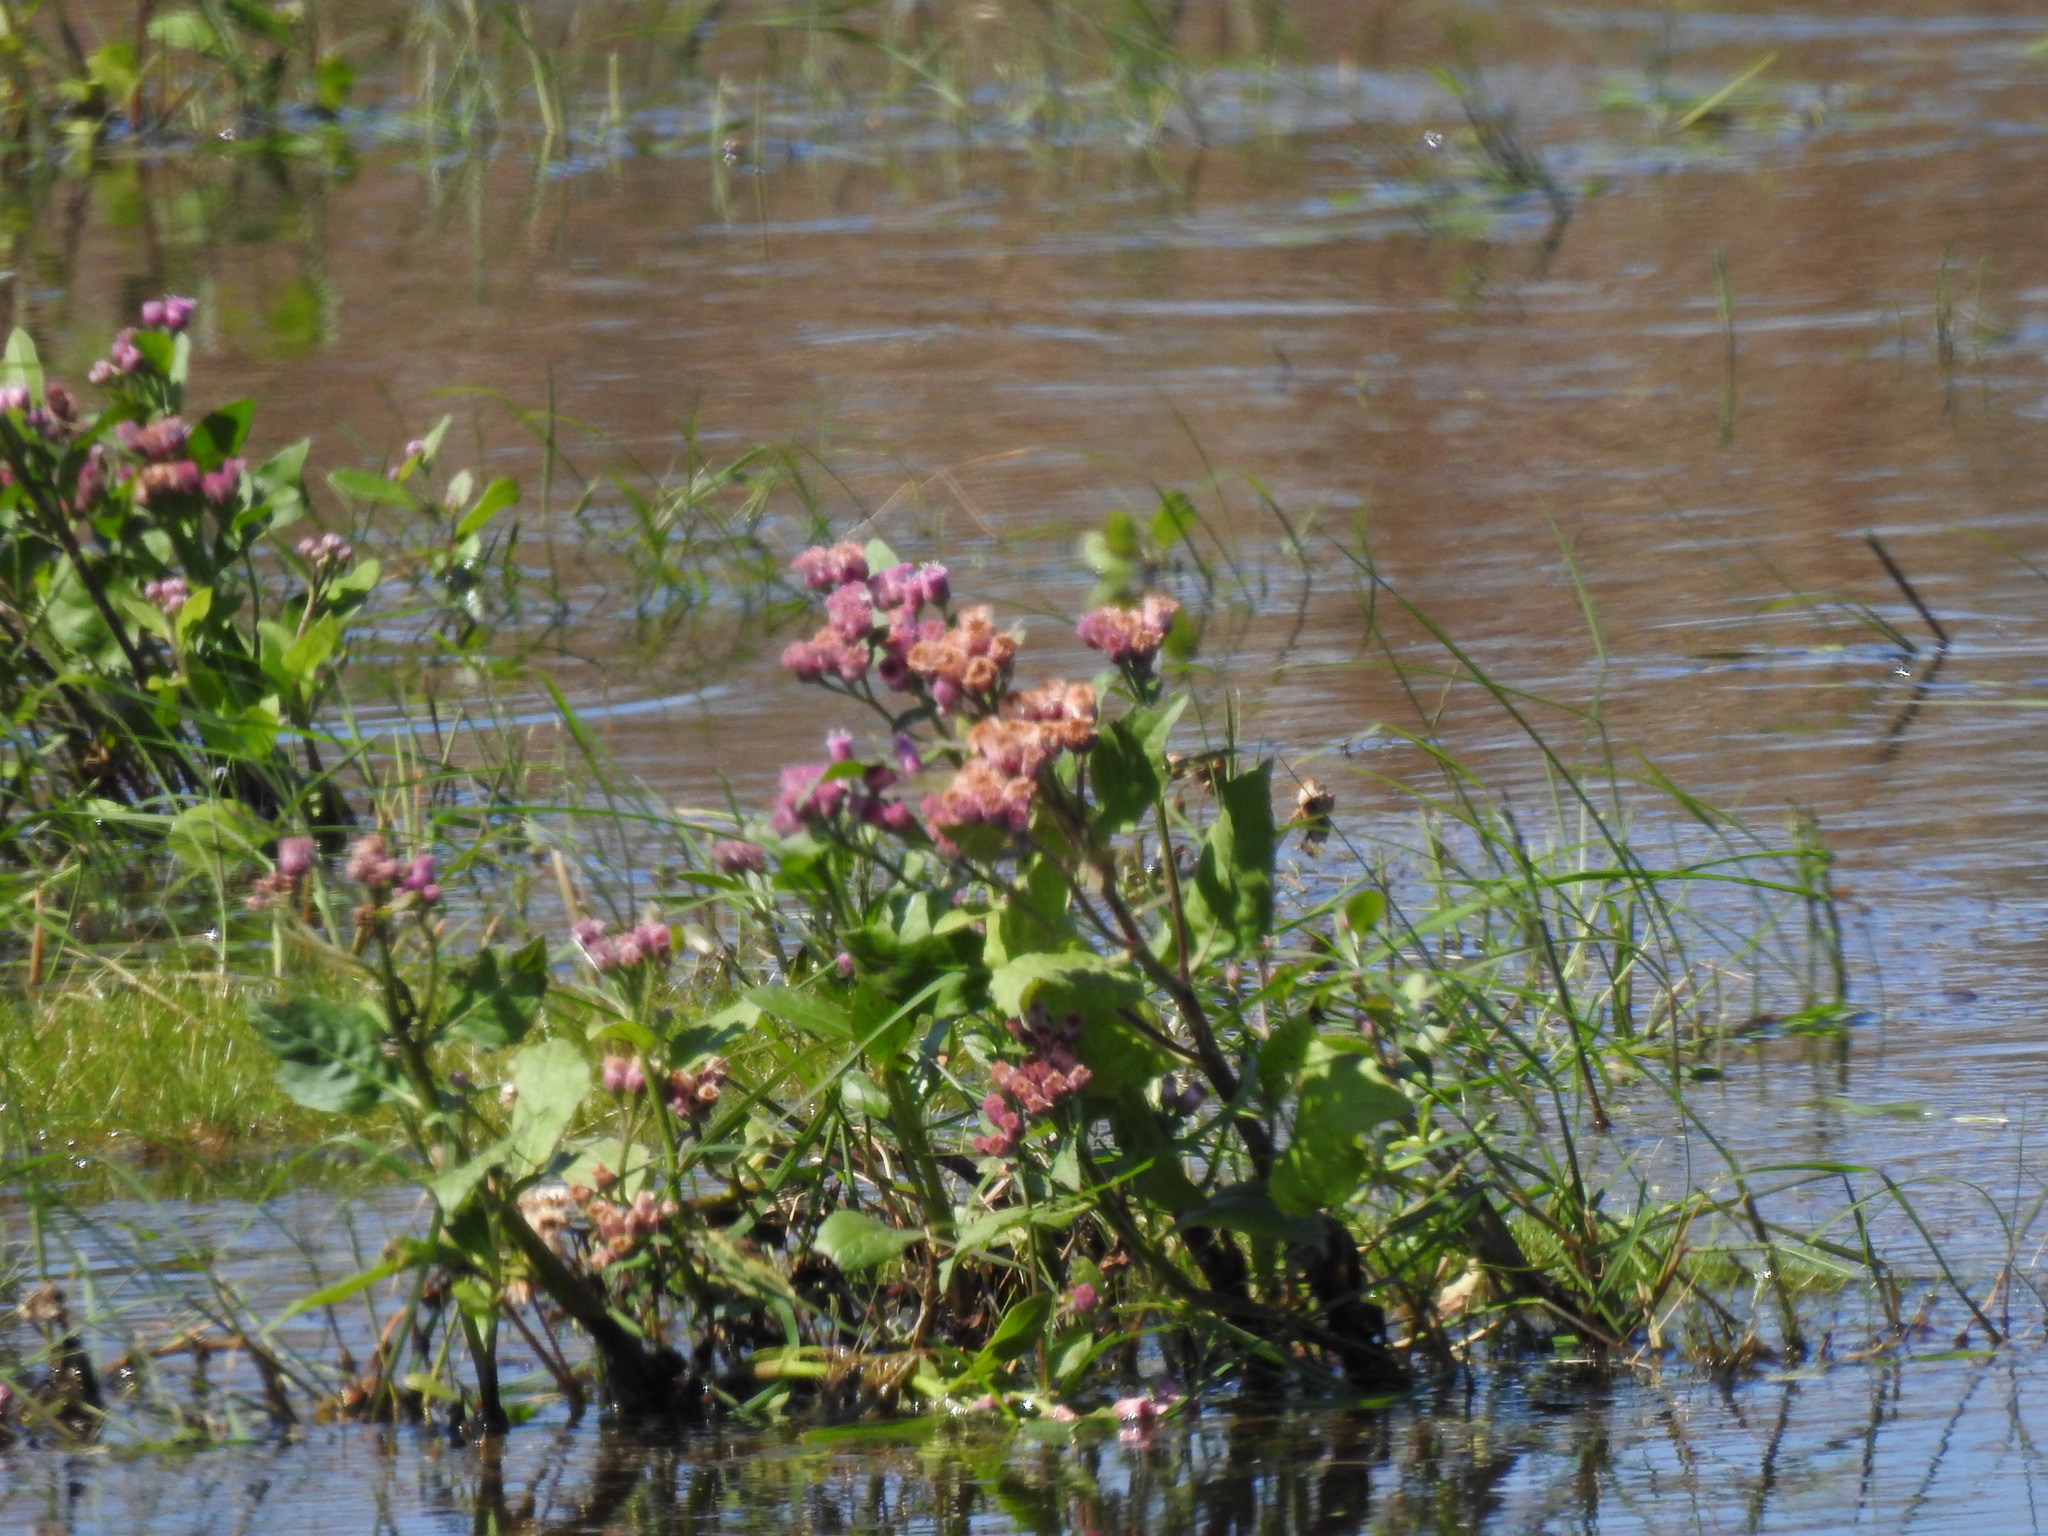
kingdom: Plantae
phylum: Tracheophyta
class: Magnoliopsida
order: Asterales
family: Asteraceae
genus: Pluchea
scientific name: Pluchea odorata
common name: Saltmarsh fleabane
